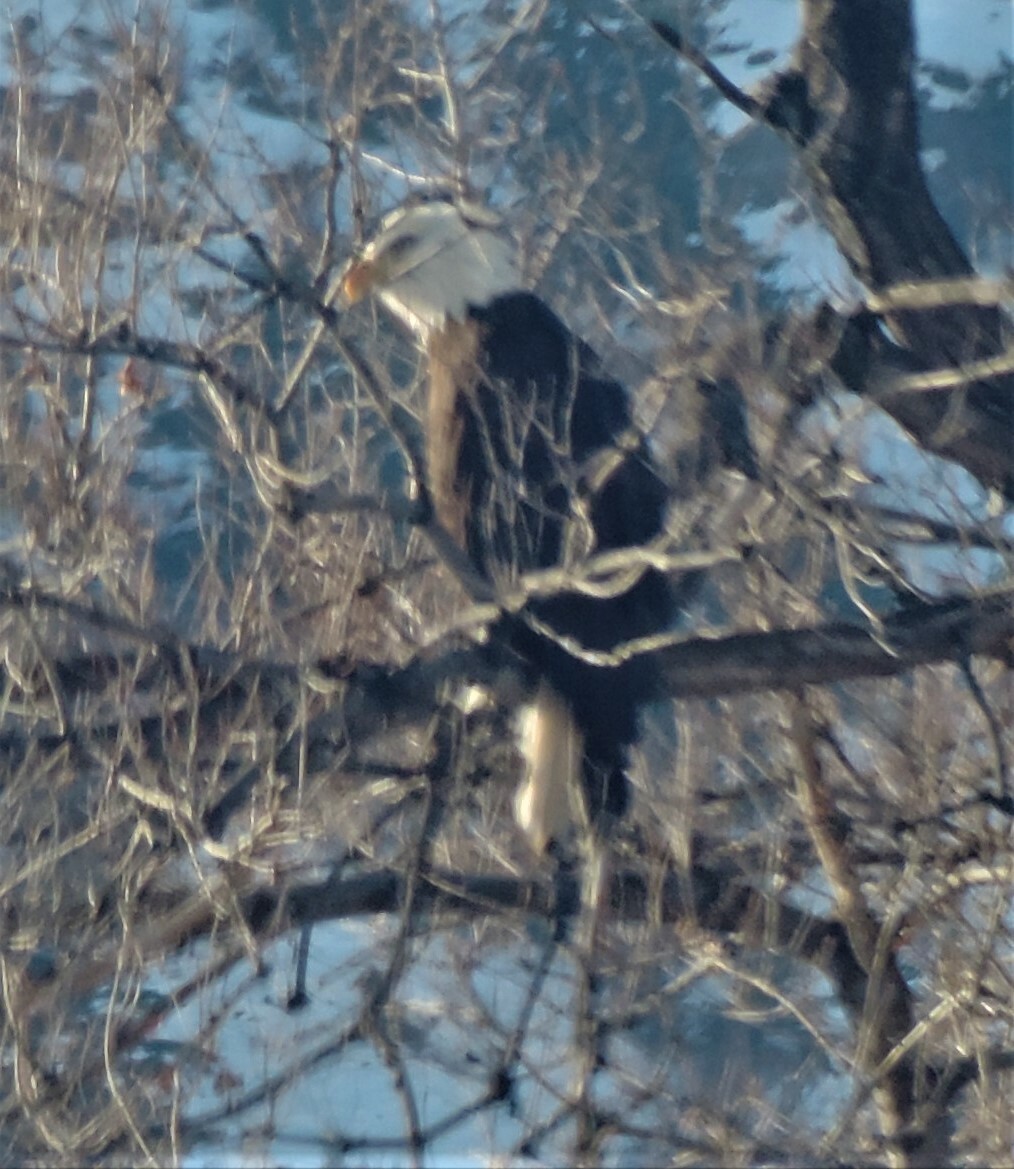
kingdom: Animalia
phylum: Chordata
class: Aves
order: Accipitriformes
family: Accipitridae
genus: Haliaeetus
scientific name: Haliaeetus leucocephalus
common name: Bald eagle
